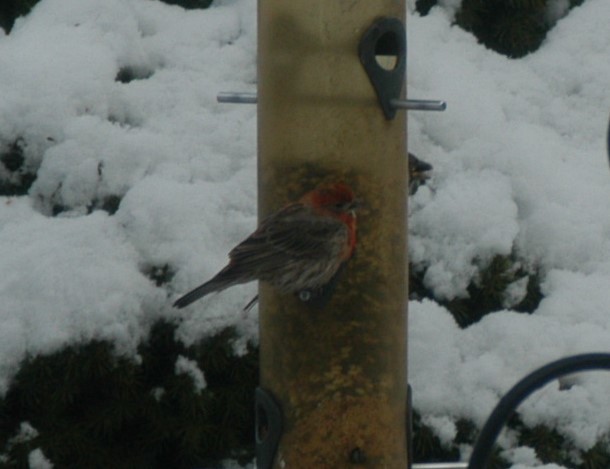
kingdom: Animalia
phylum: Chordata
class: Aves
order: Passeriformes
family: Fringillidae
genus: Haemorhous
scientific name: Haemorhous mexicanus
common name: House finch
